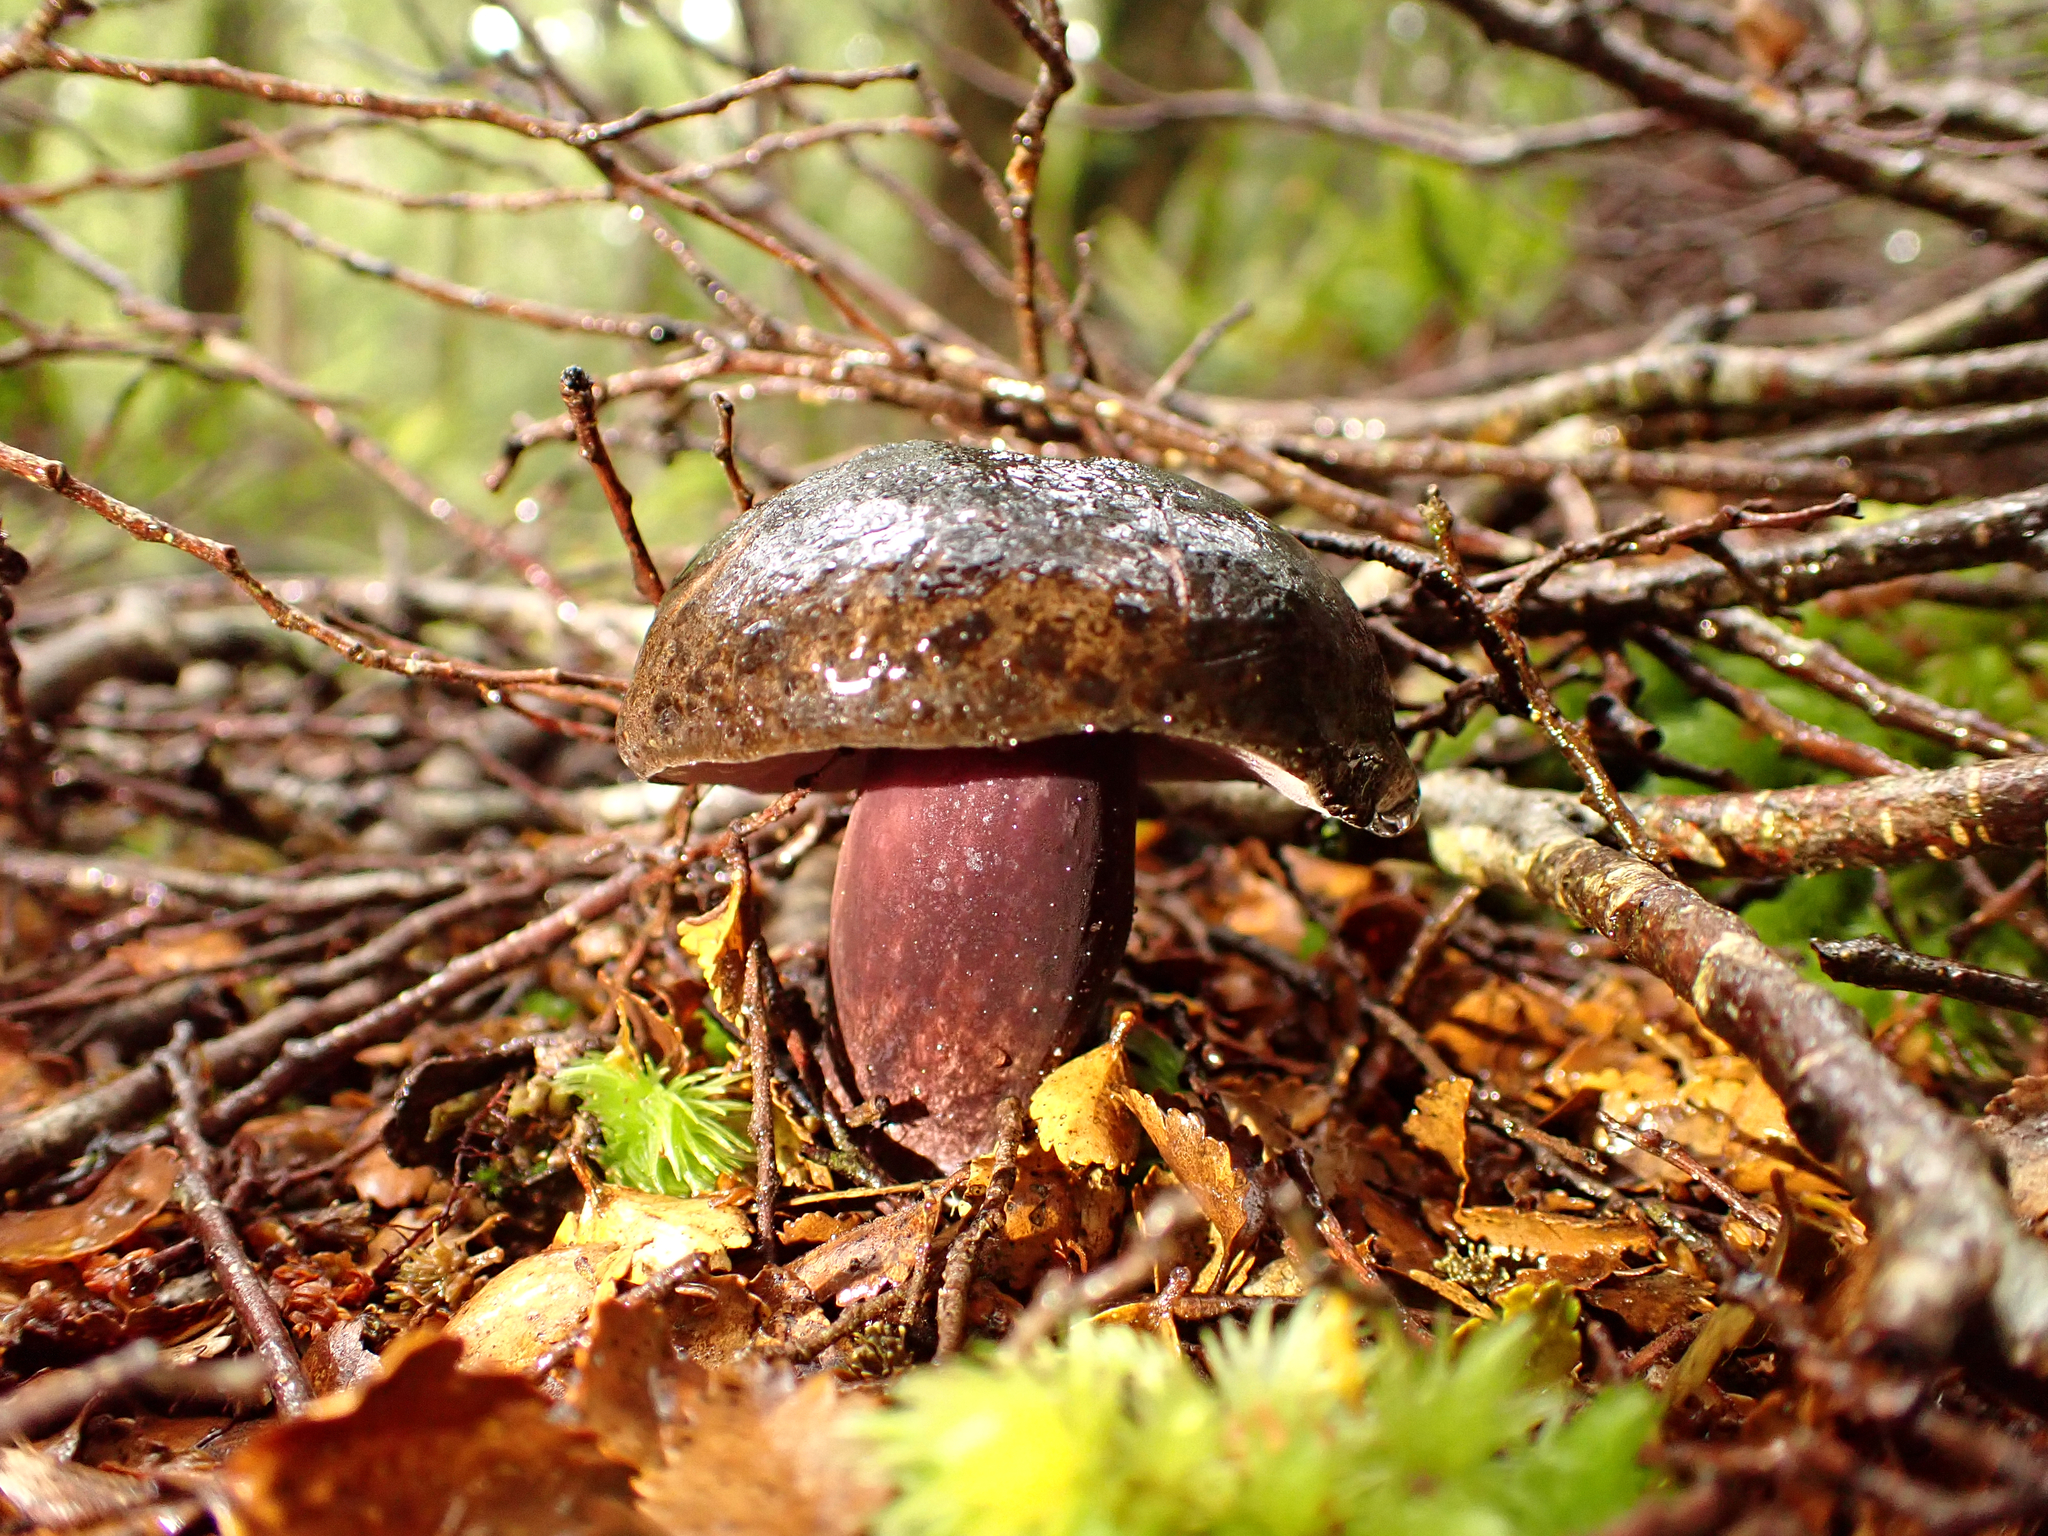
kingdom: Fungi
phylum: Basidiomycota
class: Agaricomycetes
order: Boletales
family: Boletaceae
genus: Porphyrellus
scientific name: Porphyrellus formosus
